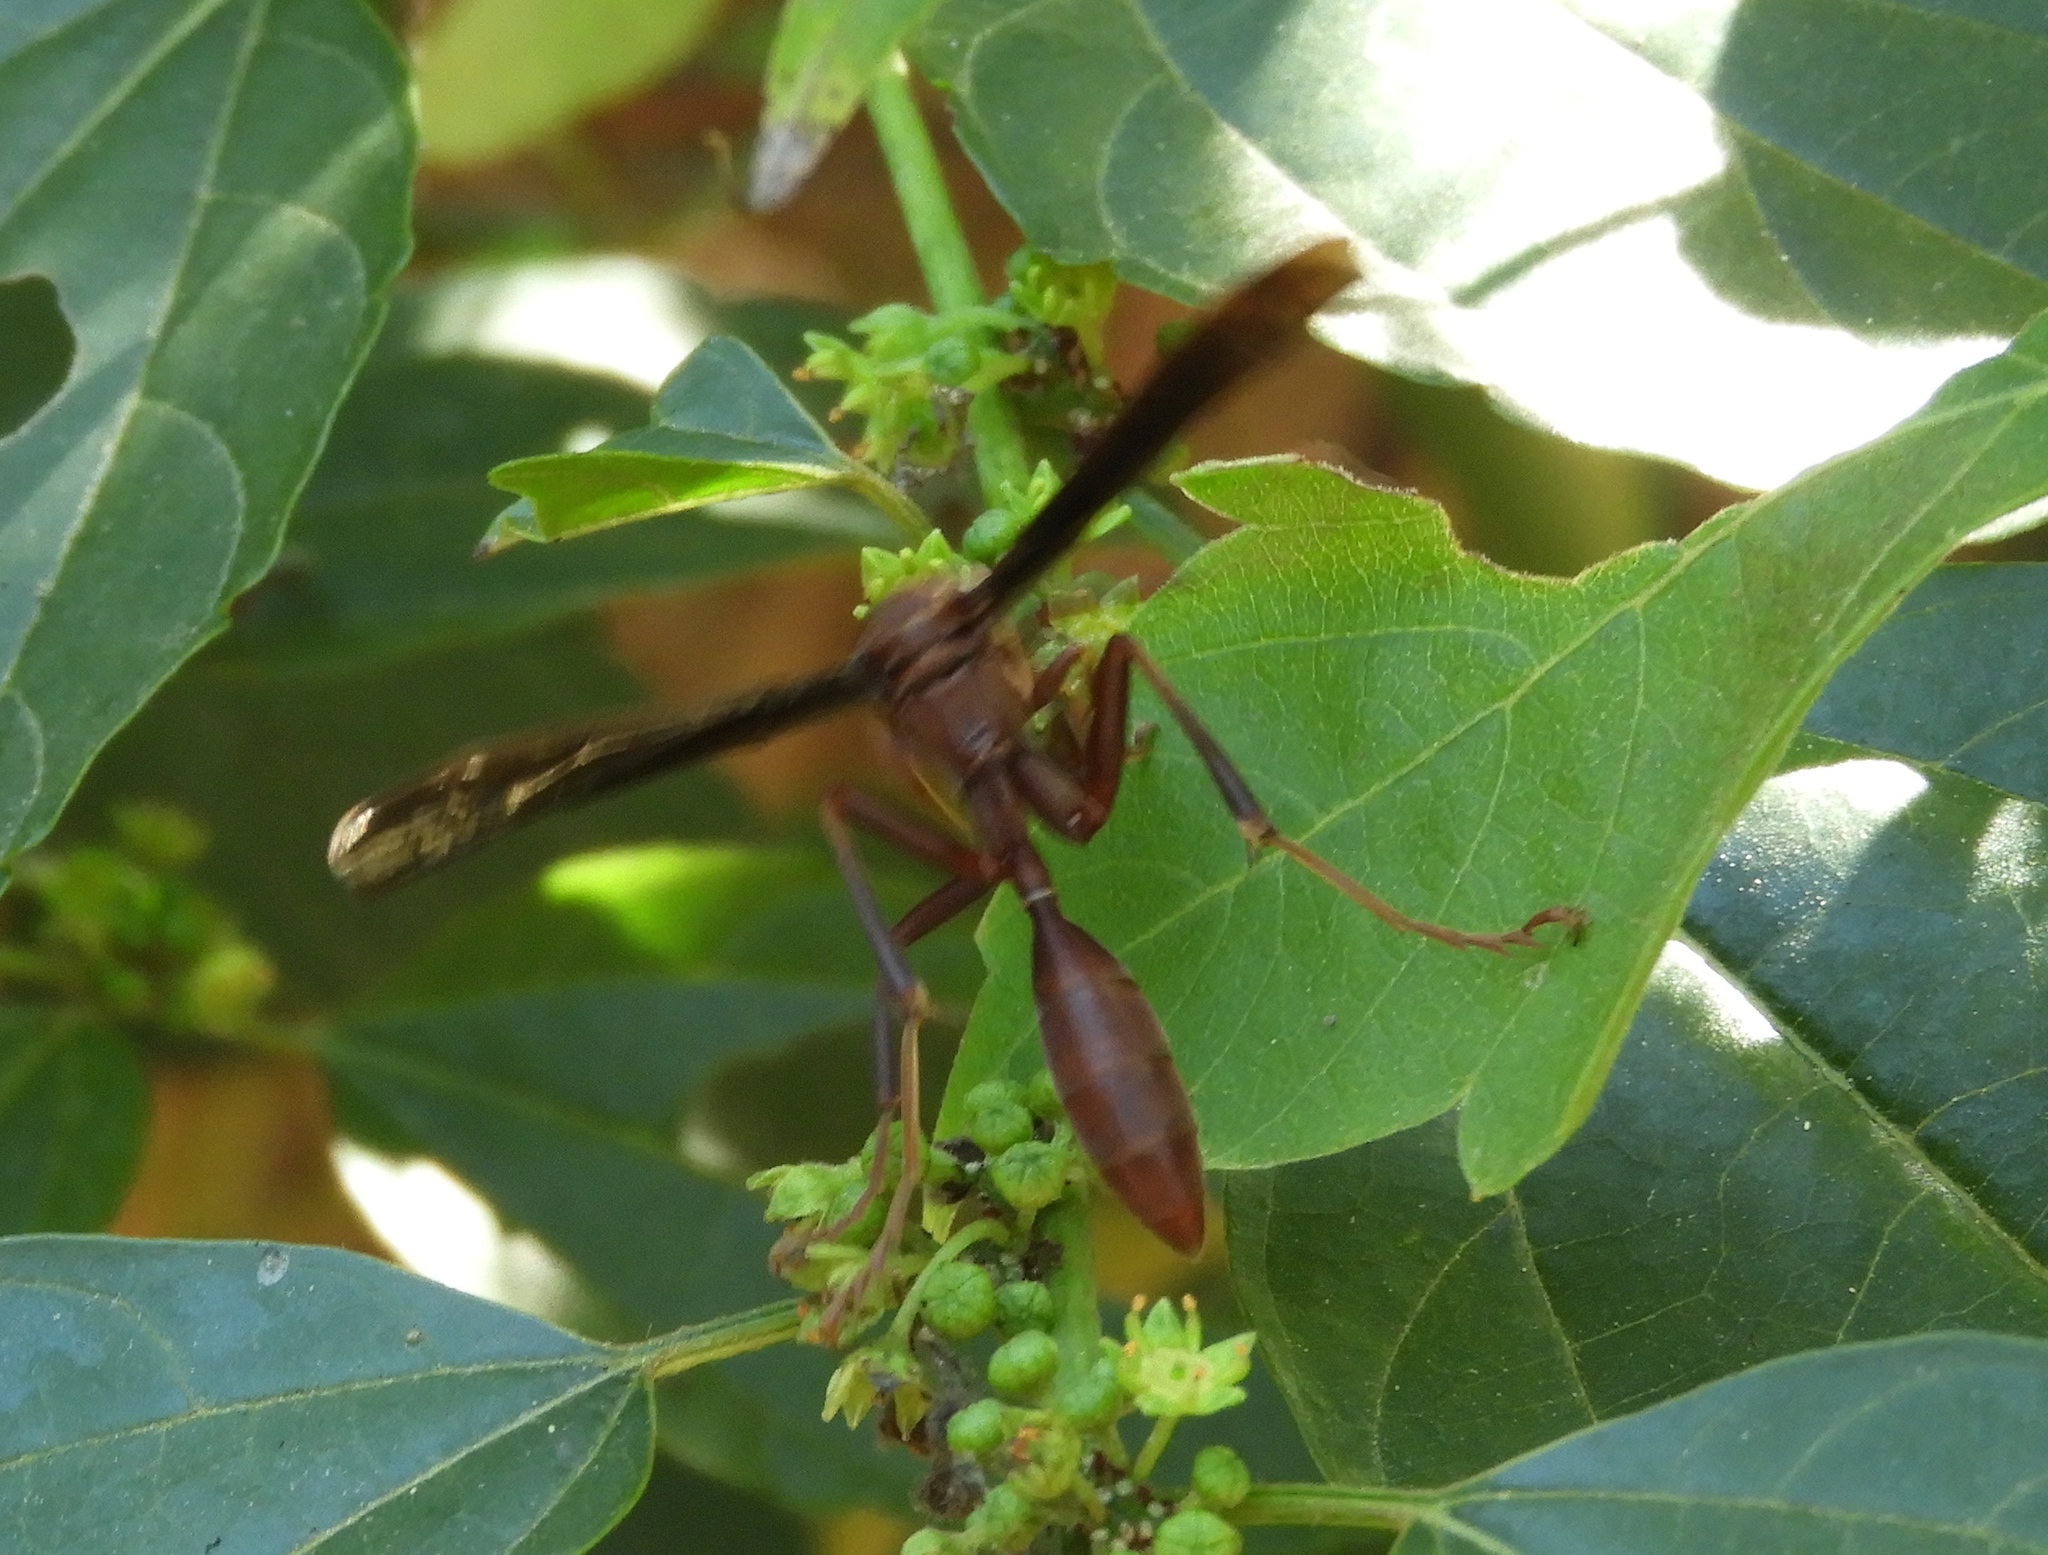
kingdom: Animalia
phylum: Arthropoda
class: Insecta
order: Hymenoptera
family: Vespidae
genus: Mischocyttarus
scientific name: Mischocyttarus melanarius
